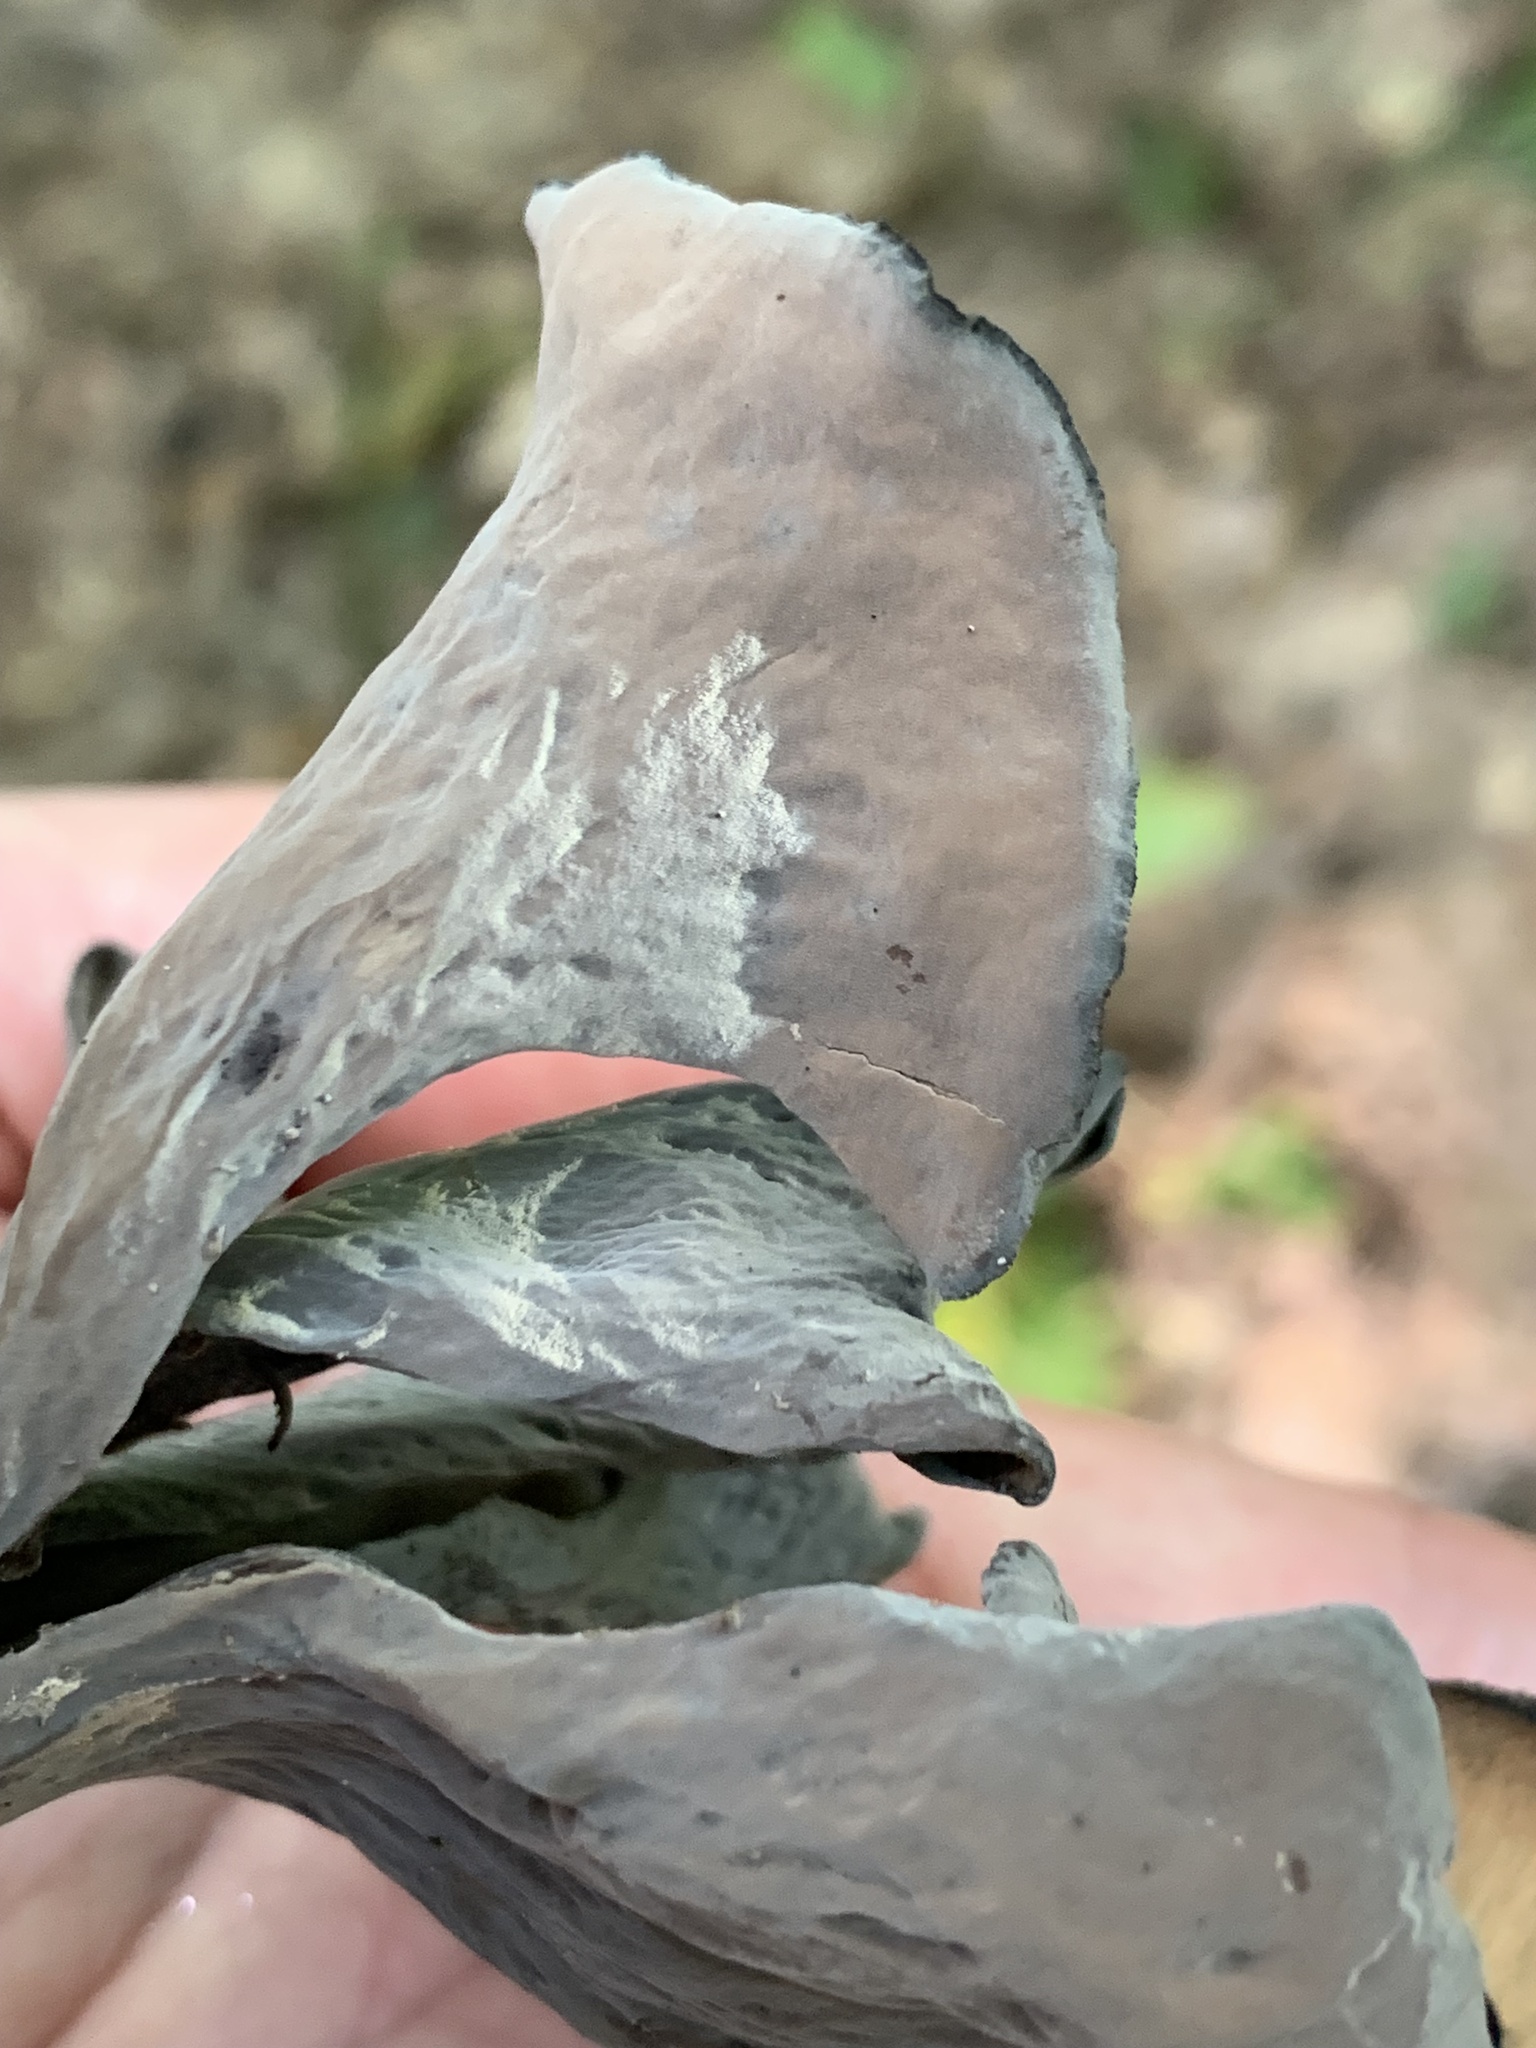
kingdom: Fungi
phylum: Basidiomycota
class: Agaricomycetes
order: Cantharellales
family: Hydnaceae
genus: Craterellus
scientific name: Craterellus cornucopioides
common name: Horn of plenty
